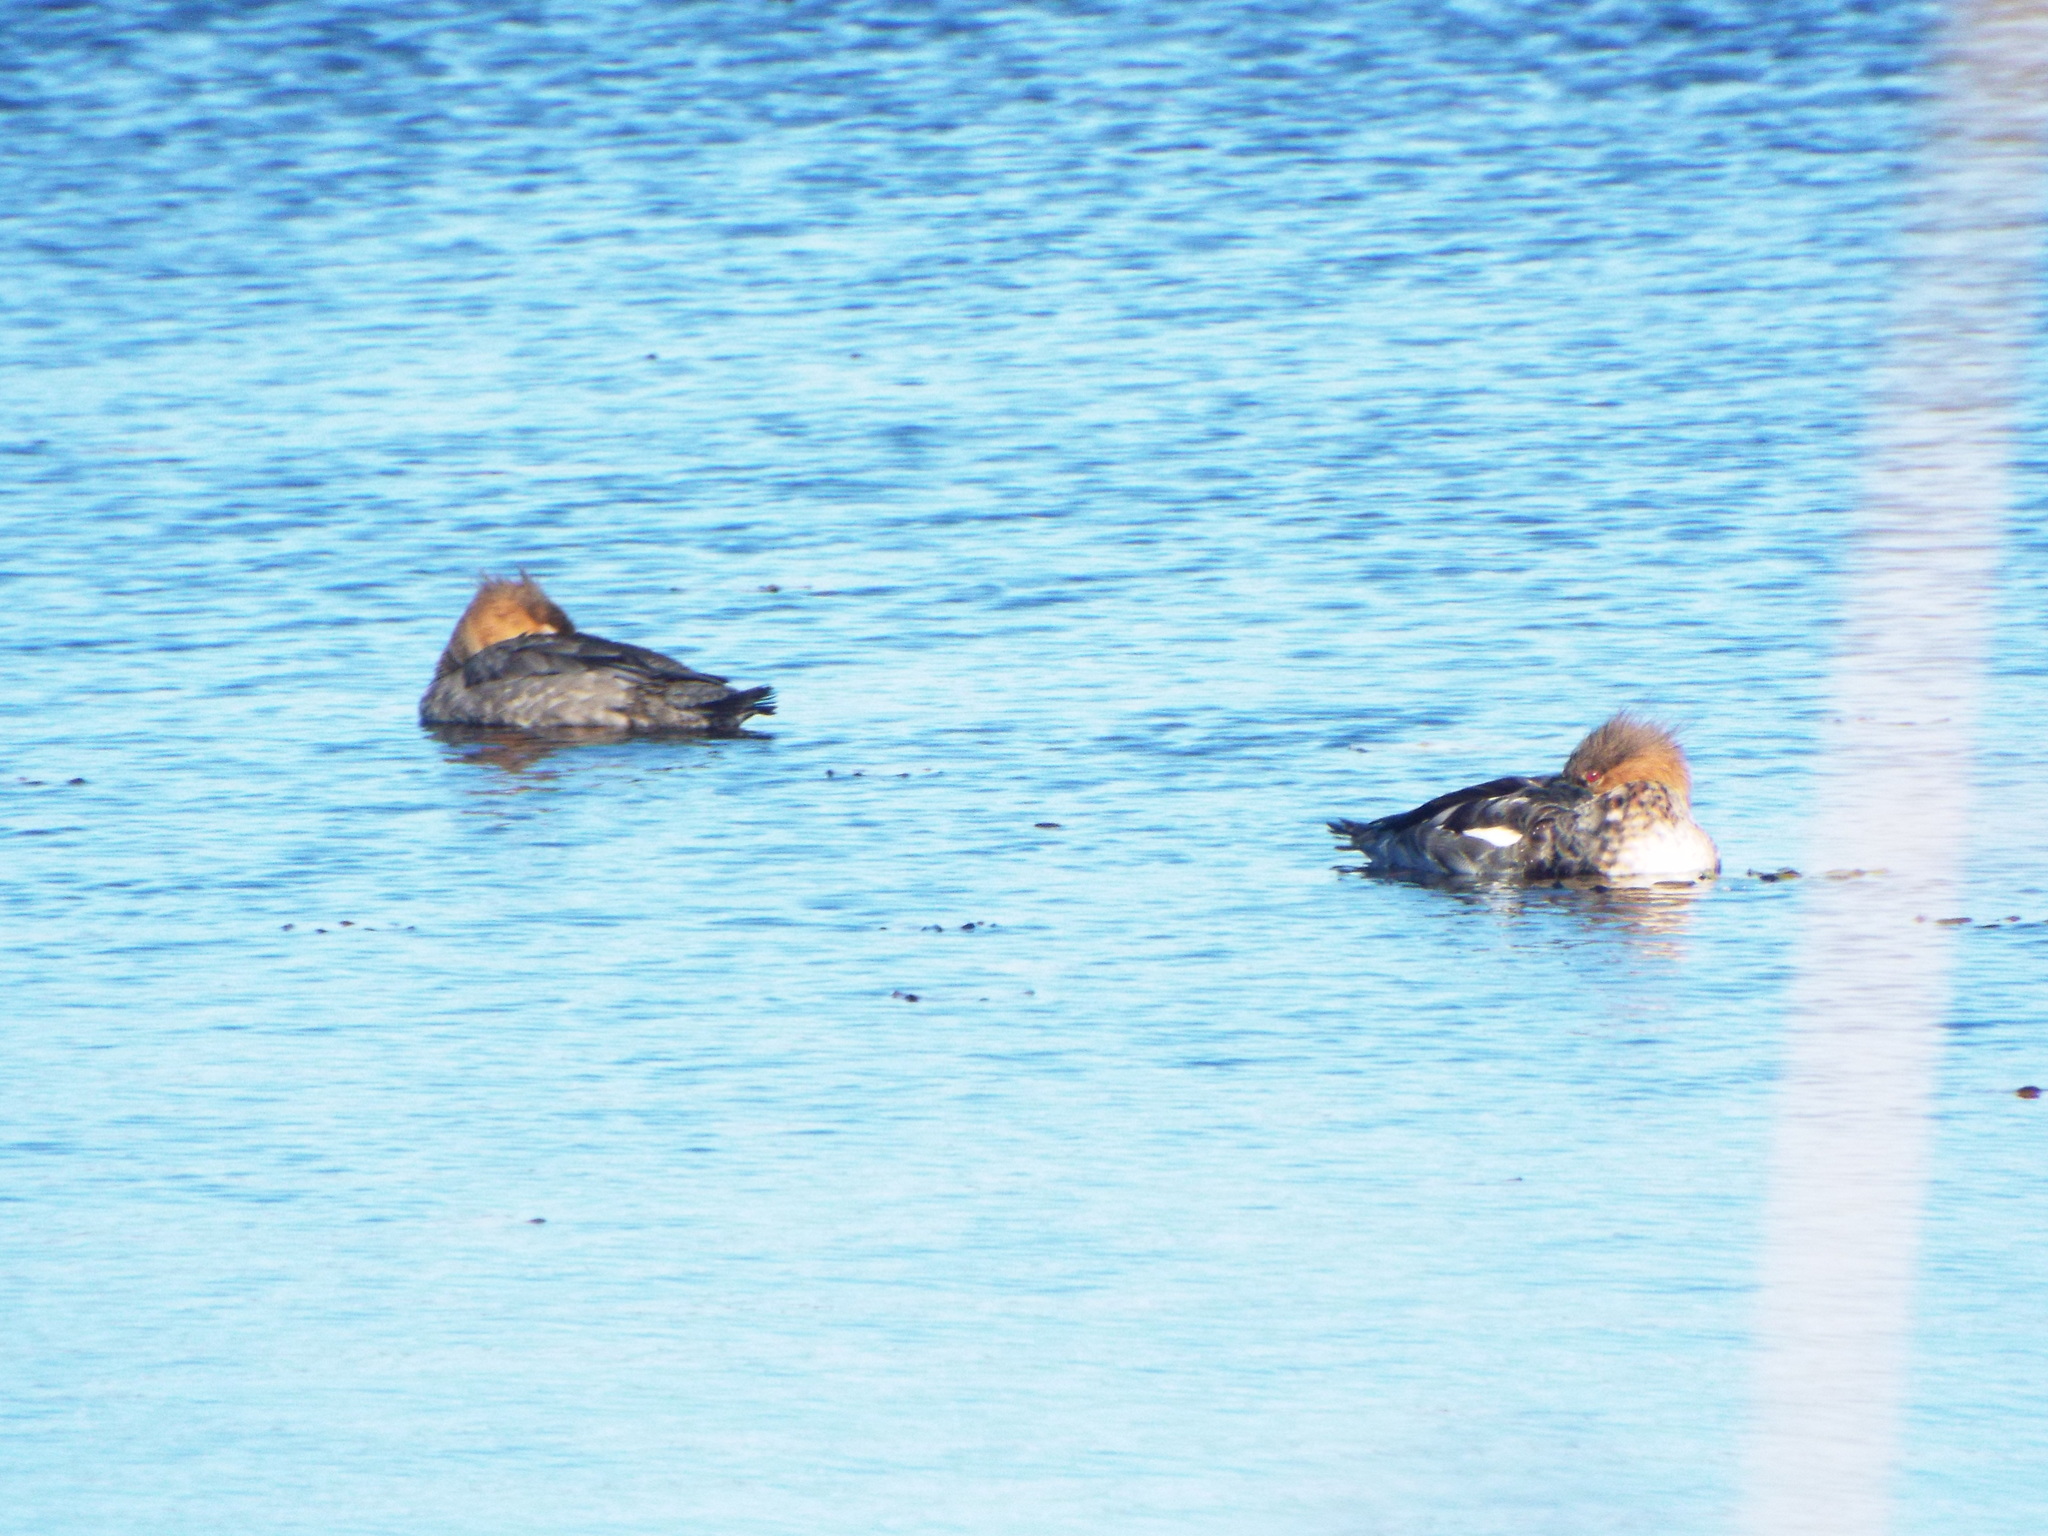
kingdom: Animalia
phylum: Chordata
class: Aves
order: Anseriformes
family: Anatidae
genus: Mergus
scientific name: Mergus serrator
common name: Red-breasted merganser
